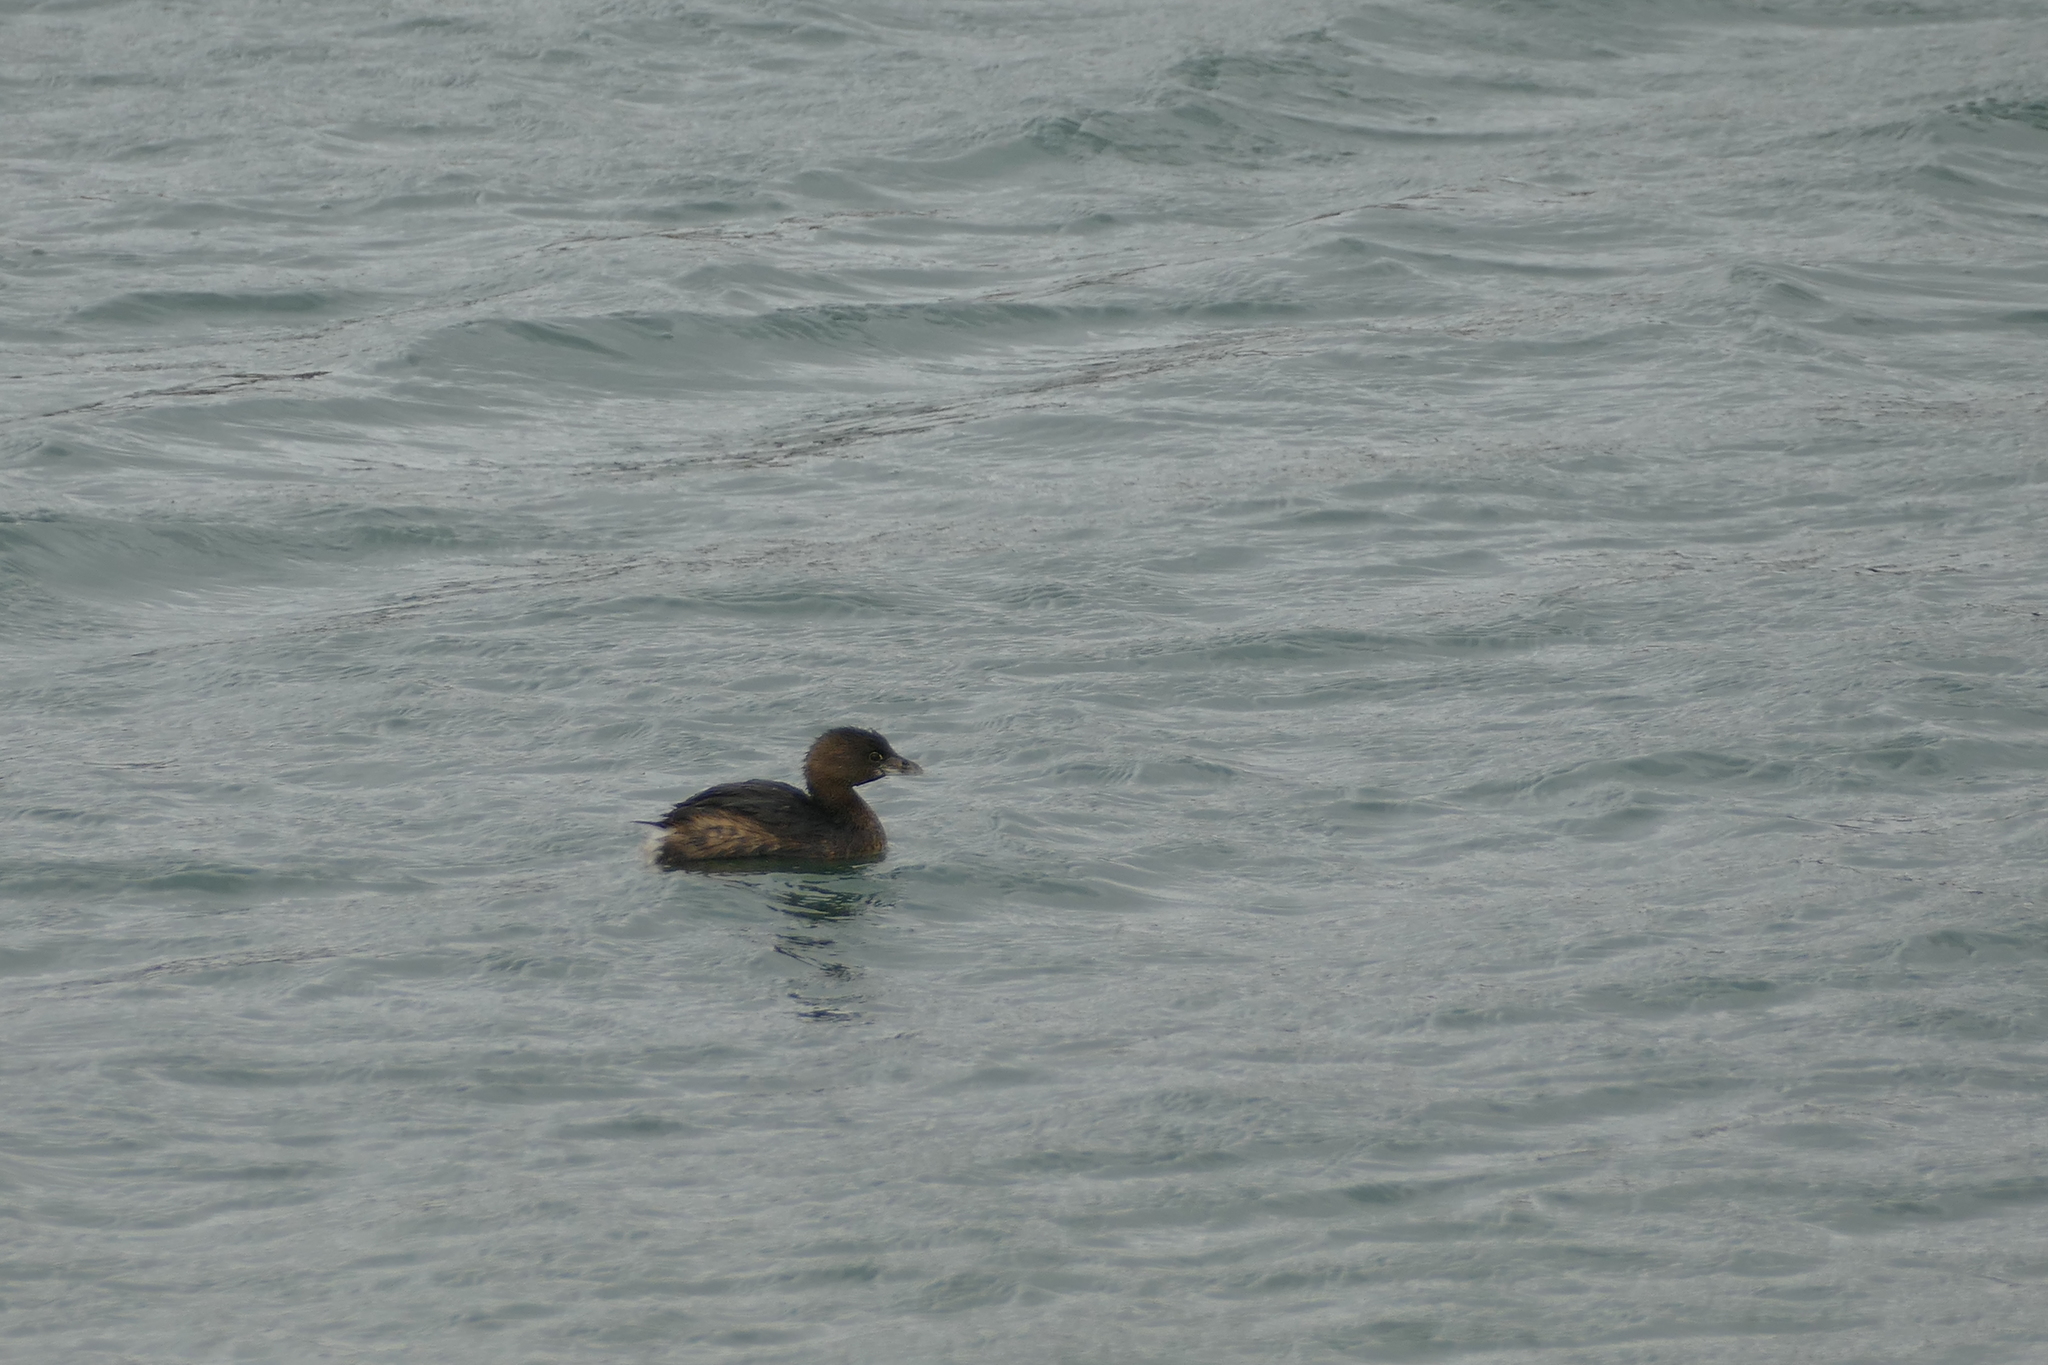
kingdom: Animalia
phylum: Chordata
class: Aves
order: Podicipediformes
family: Podicipedidae
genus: Podilymbus
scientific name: Podilymbus podiceps
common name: Pied-billed grebe
